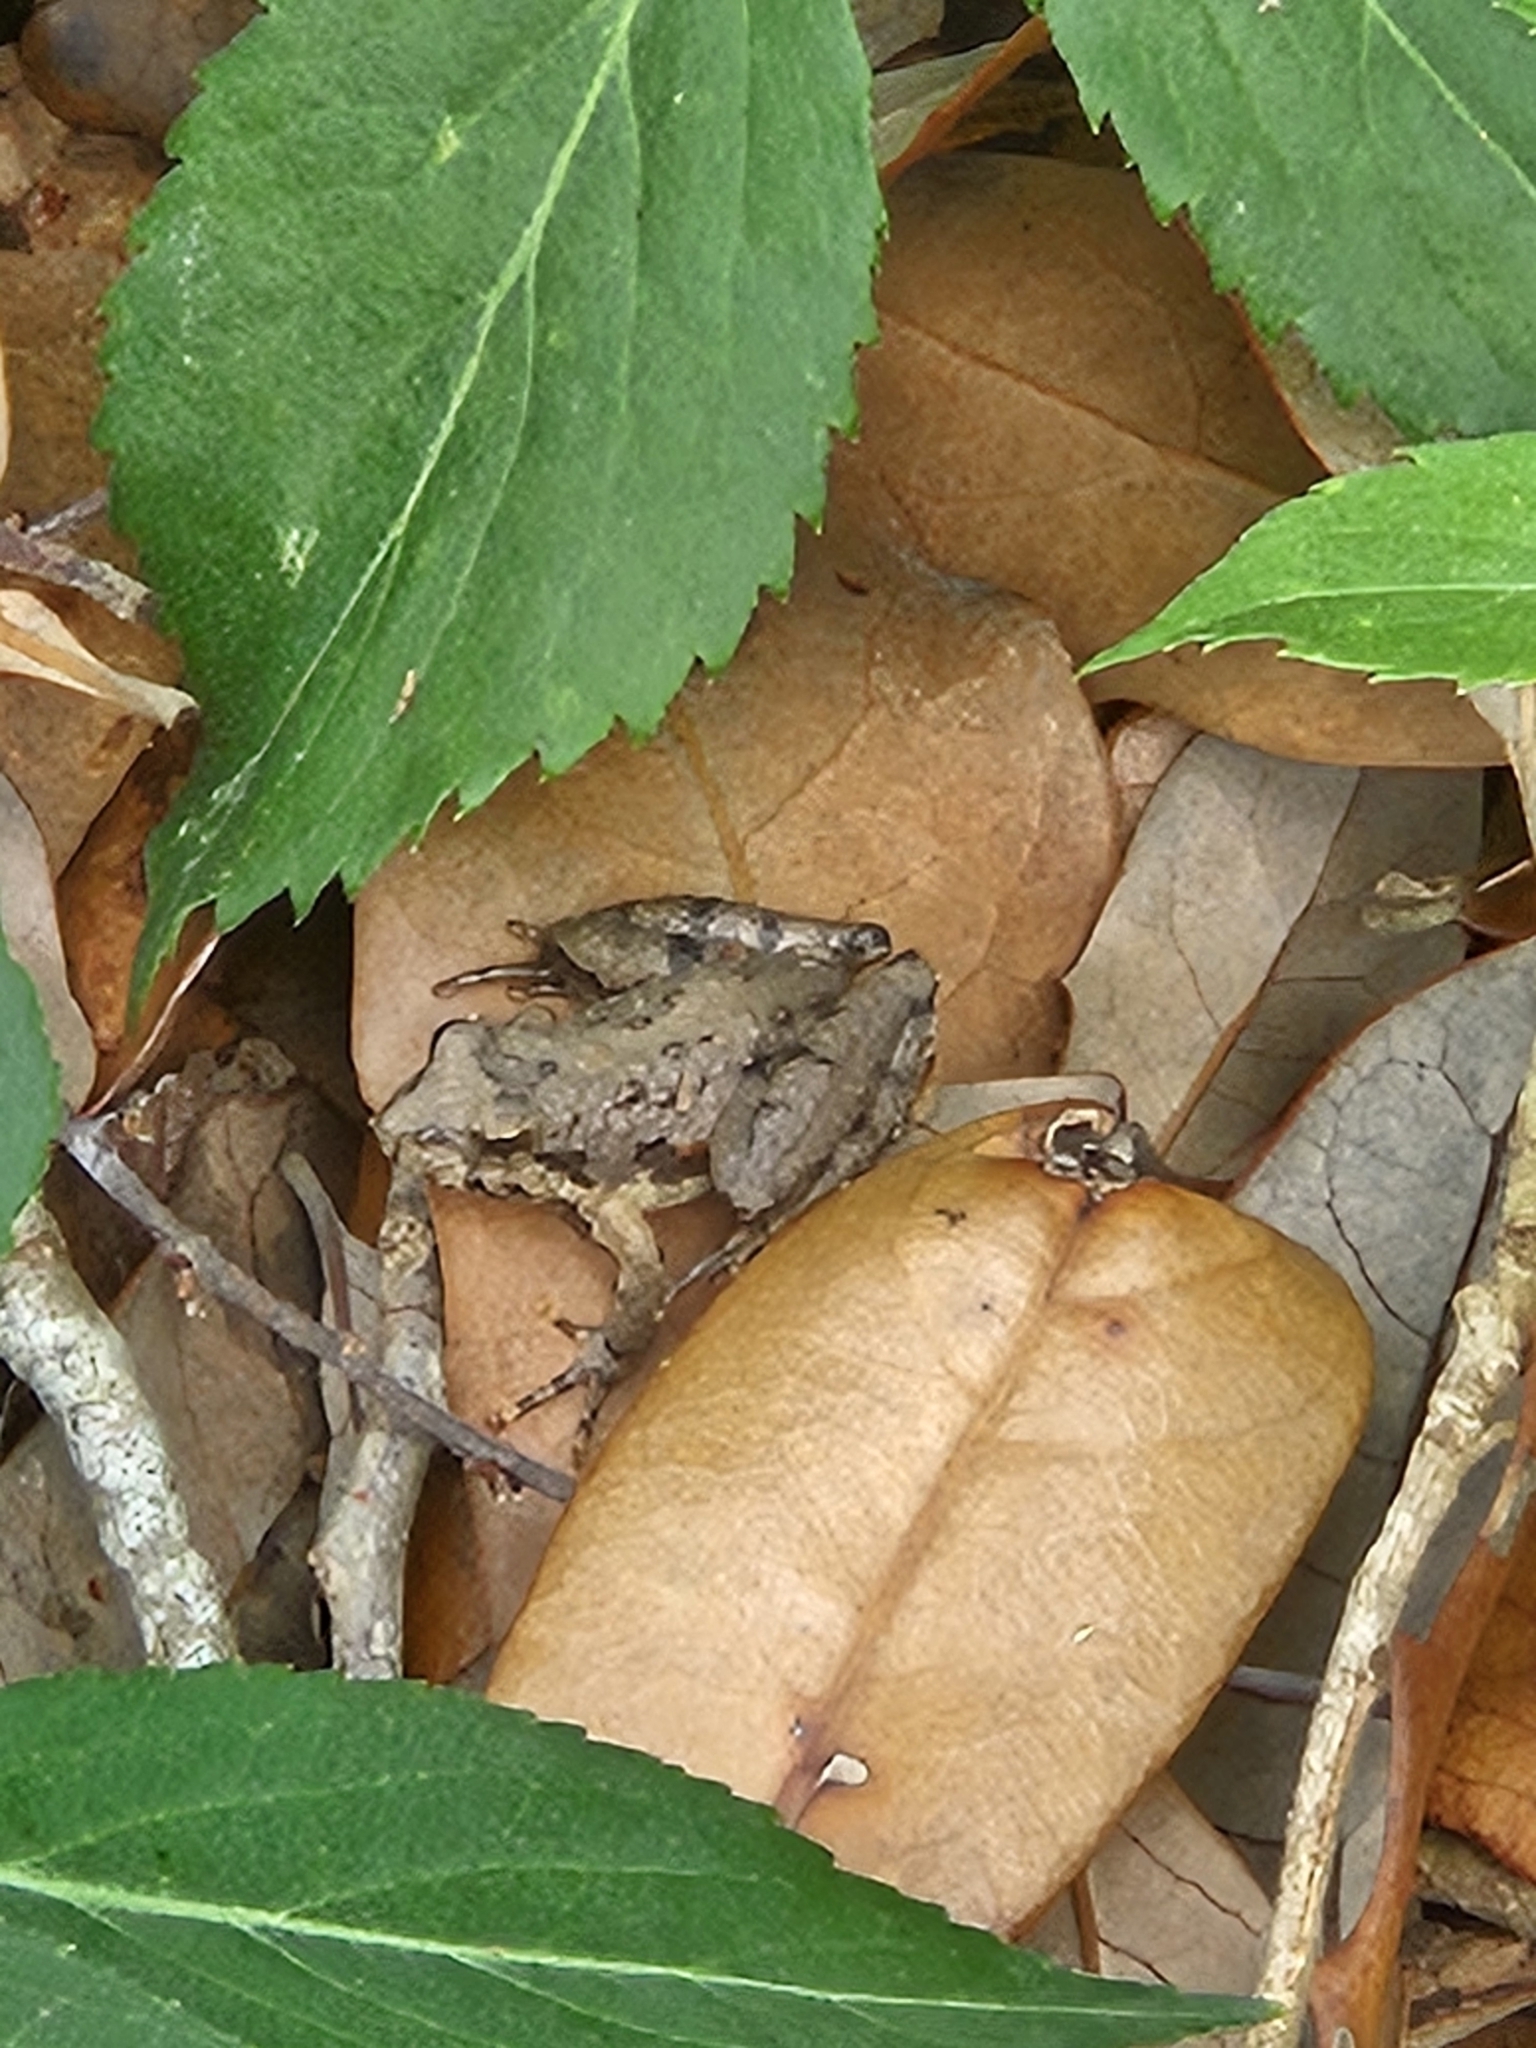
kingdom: Animalia
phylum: Chordata
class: Amphibia
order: Anura
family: Hylidae
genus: Acris
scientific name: Acris blanchardi
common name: Blanchard's cricket frog
